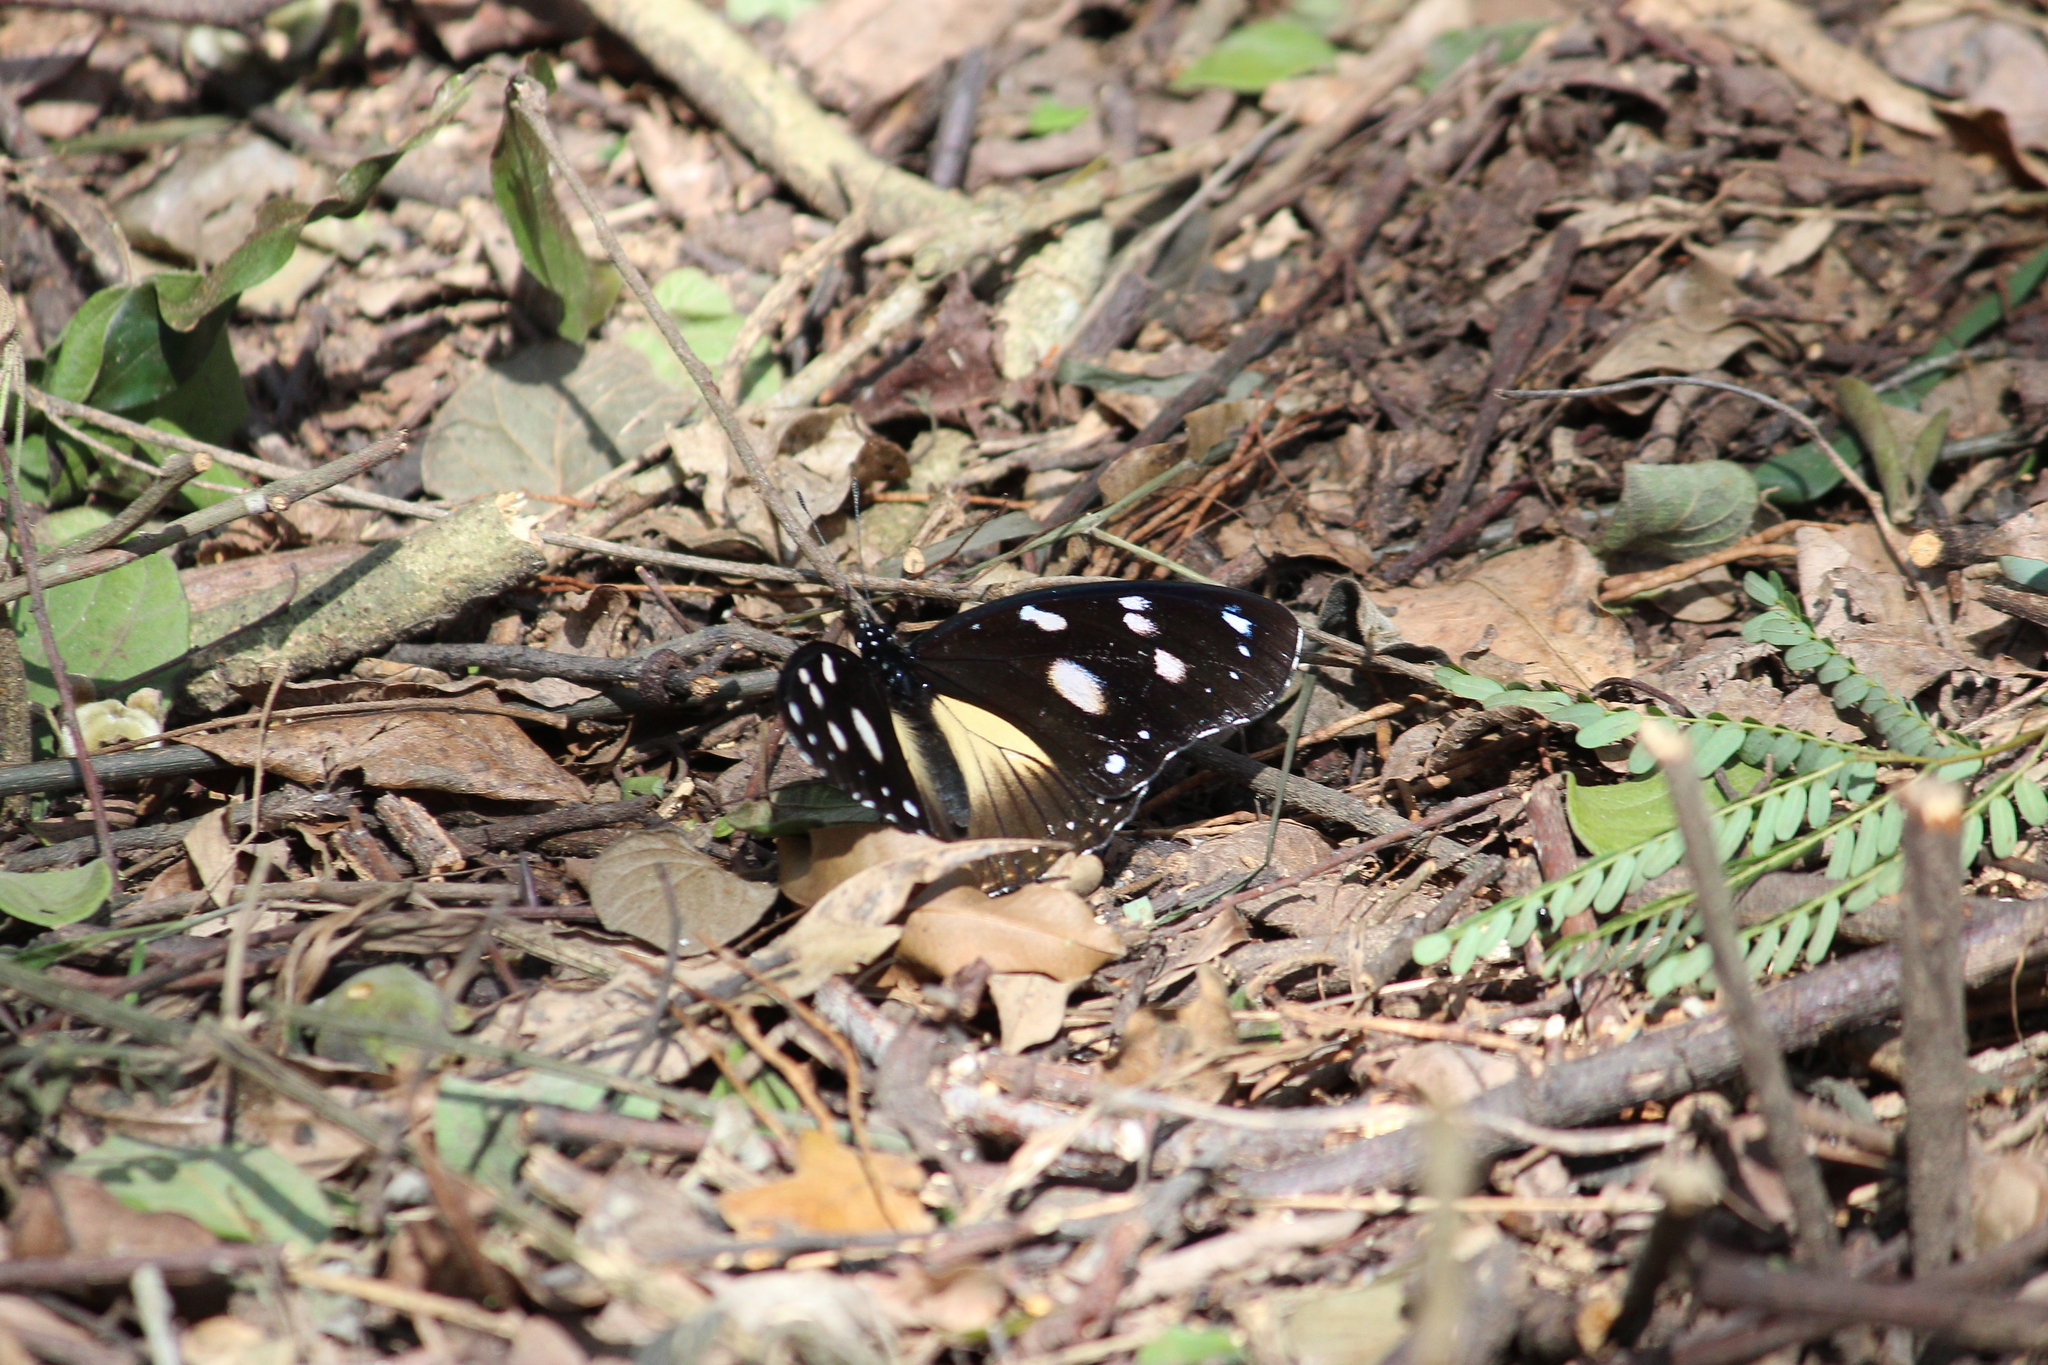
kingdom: Animalia
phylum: Arthropoda
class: Insecta
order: Lepidoptera
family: Nymphalidae
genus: Hypolimnas
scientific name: Hypolimnas dubius
